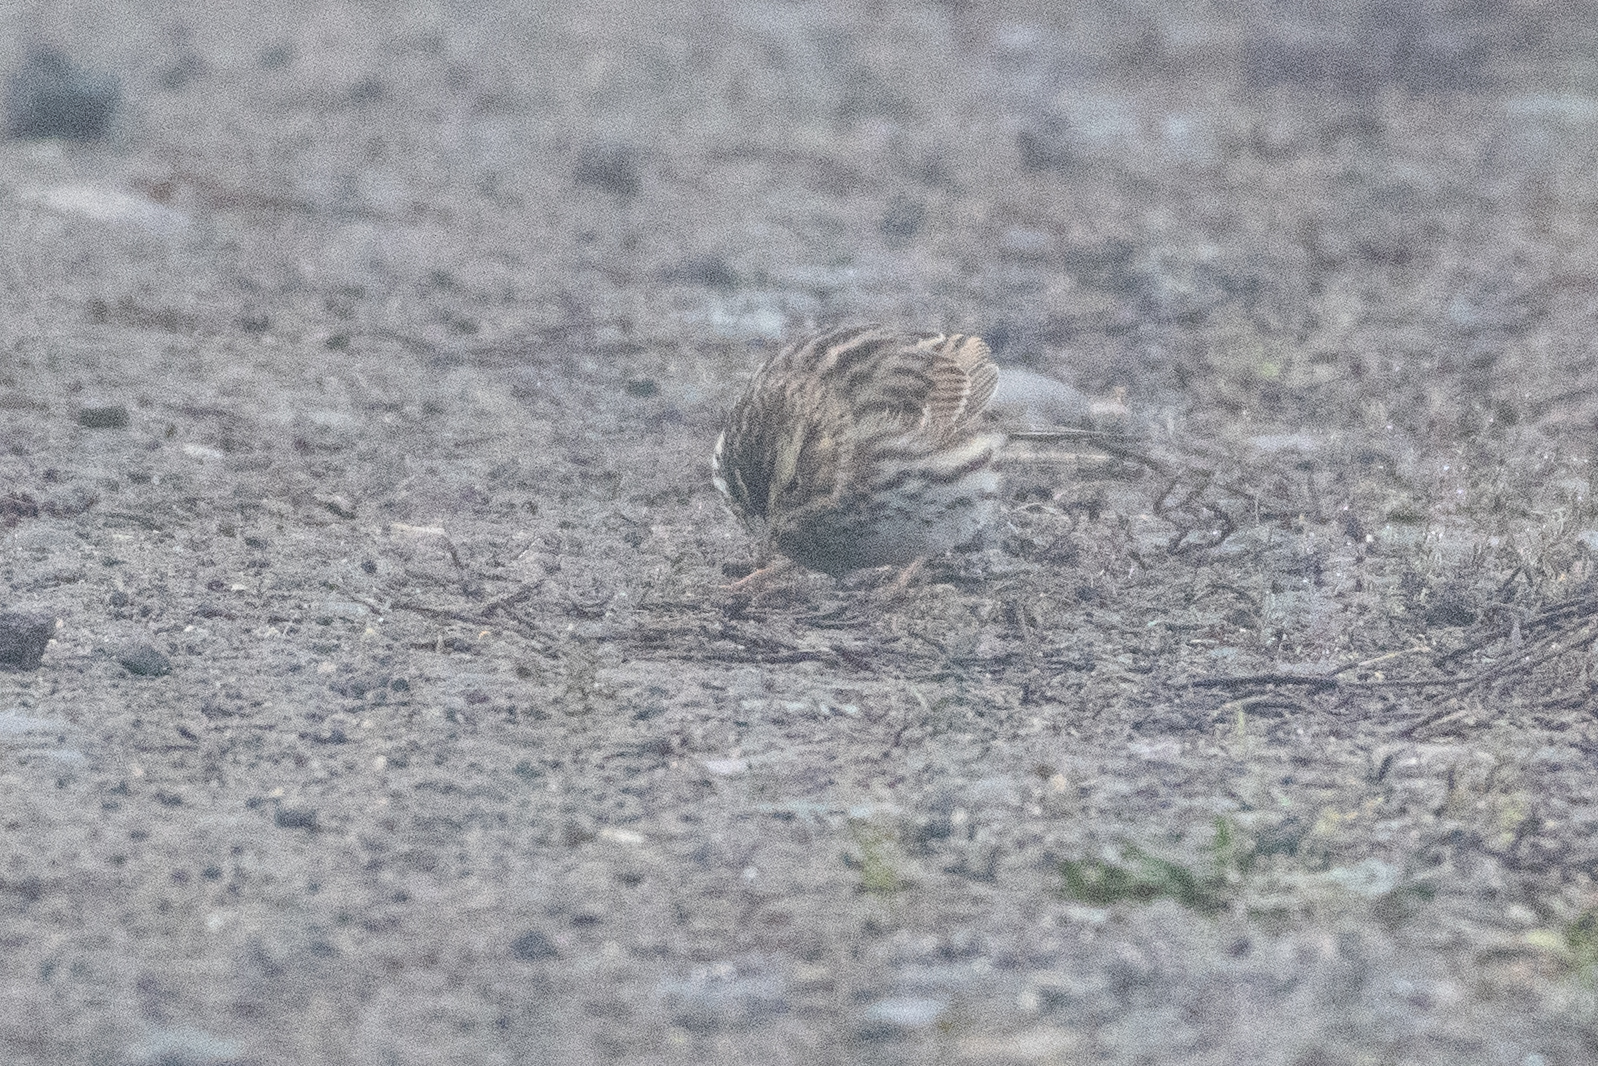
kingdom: Animalia
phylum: Chordata
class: Aves
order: Passeriformes
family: Passerellidae
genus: Passerculus
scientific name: Passerculus sandwichensis
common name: Savannah sparrow
